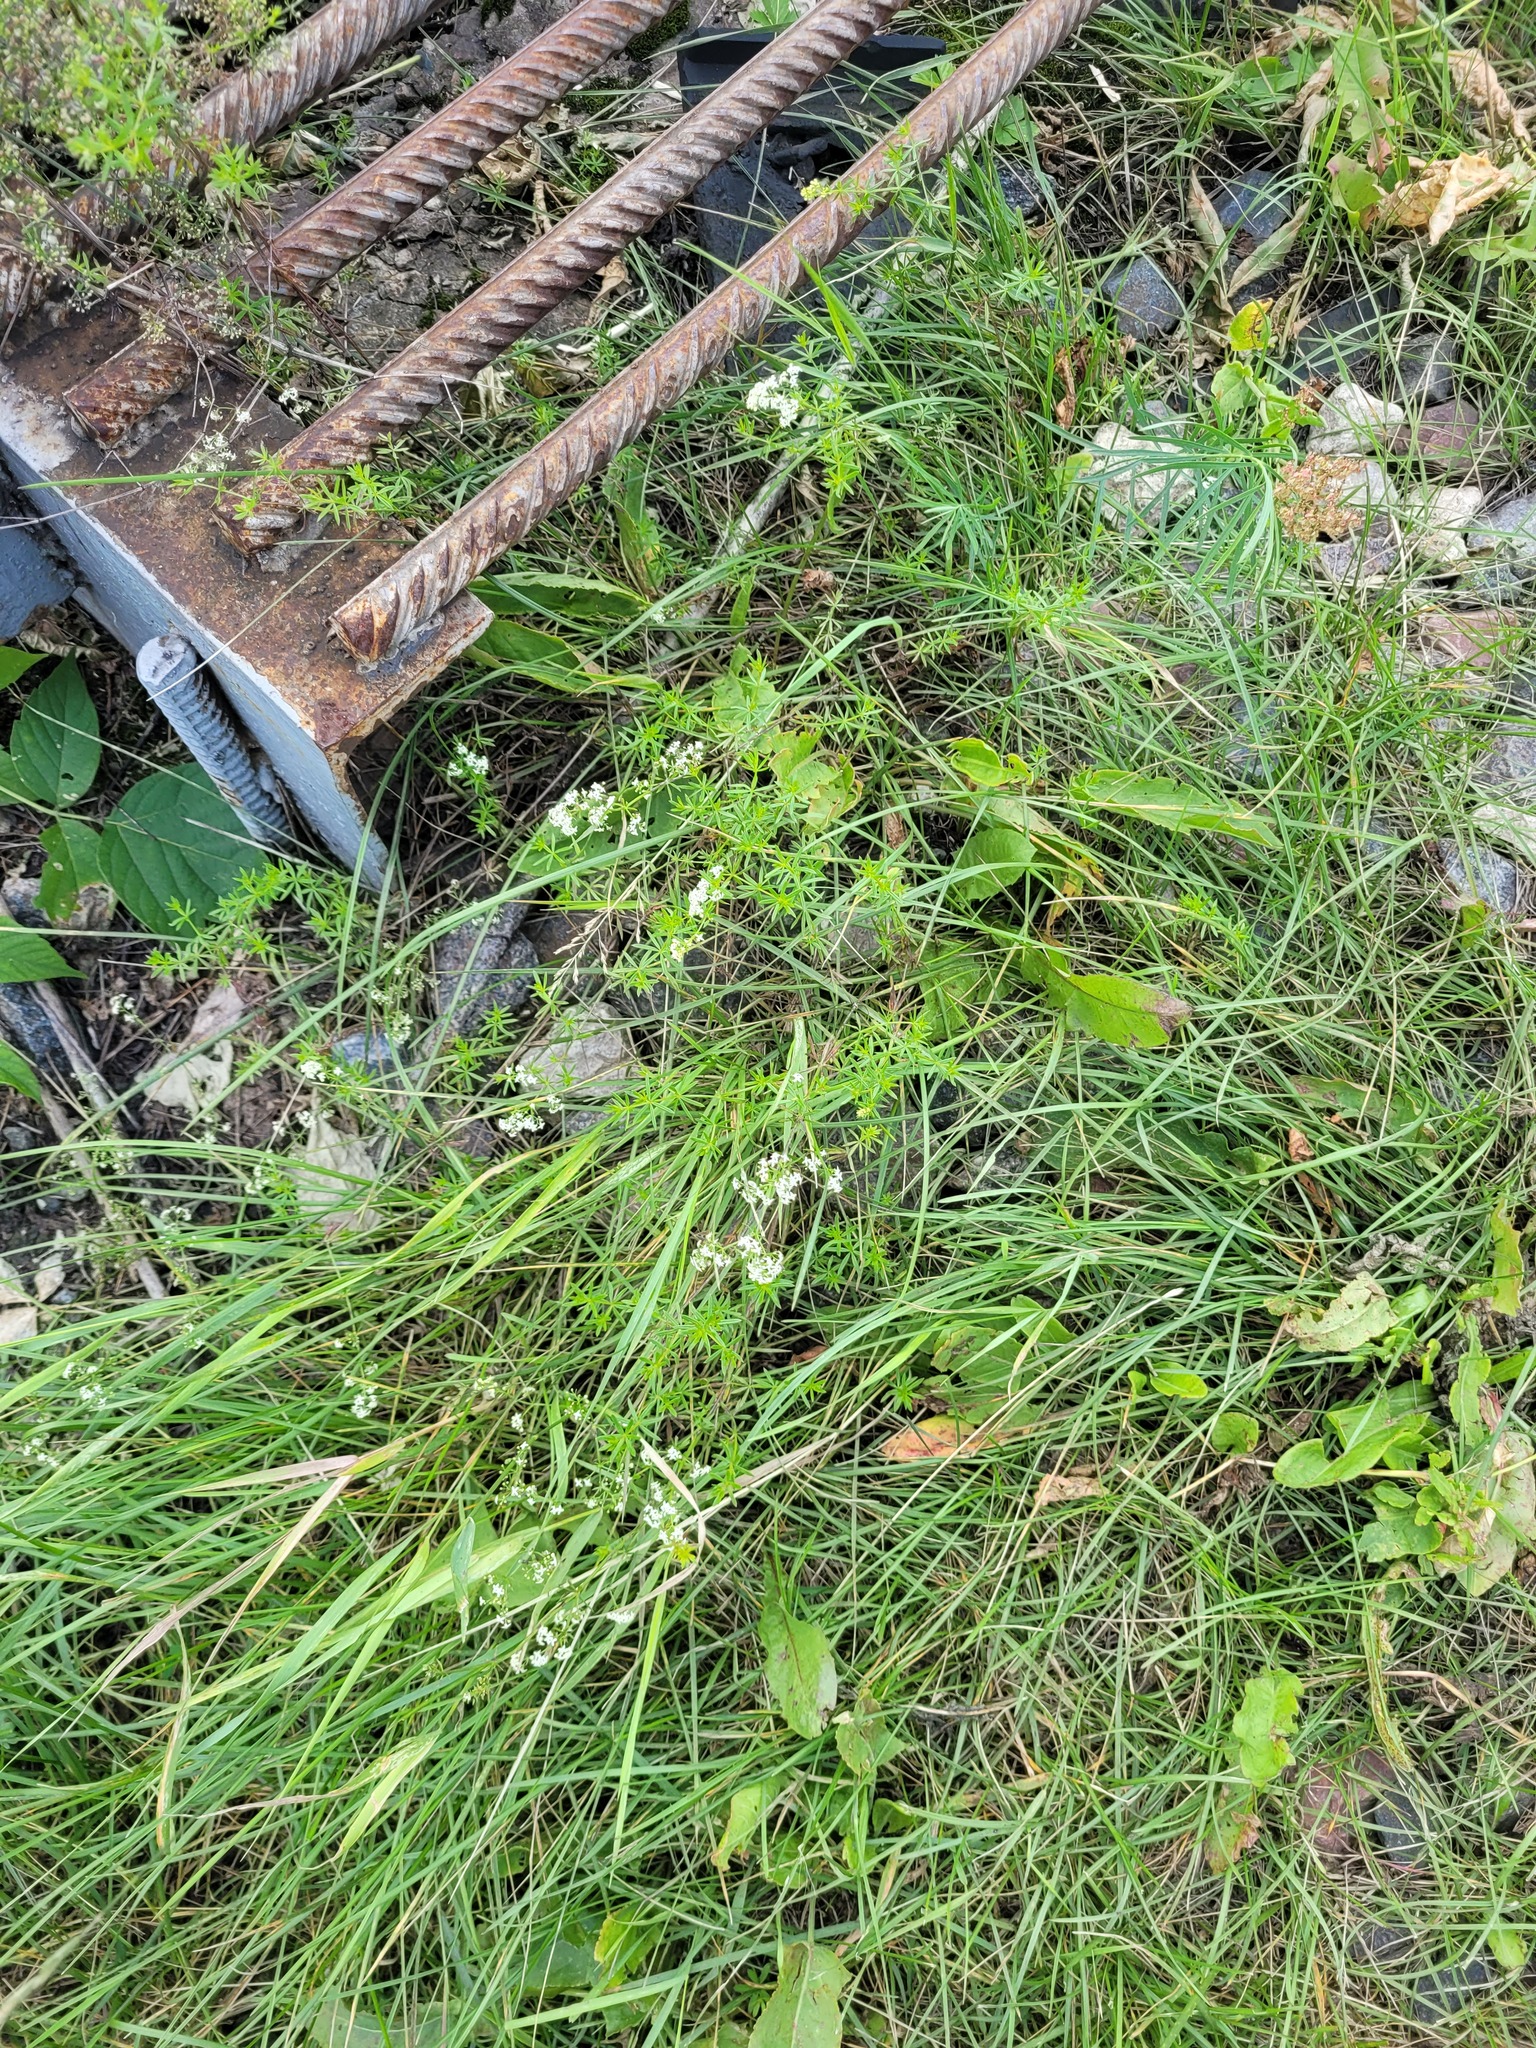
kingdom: Plantae
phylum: Tracheophyta
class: Magnoliopsida
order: Gentianales
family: Rubiaceae
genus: Galium
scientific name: Galium mollugo
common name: Hedge bedstraw
